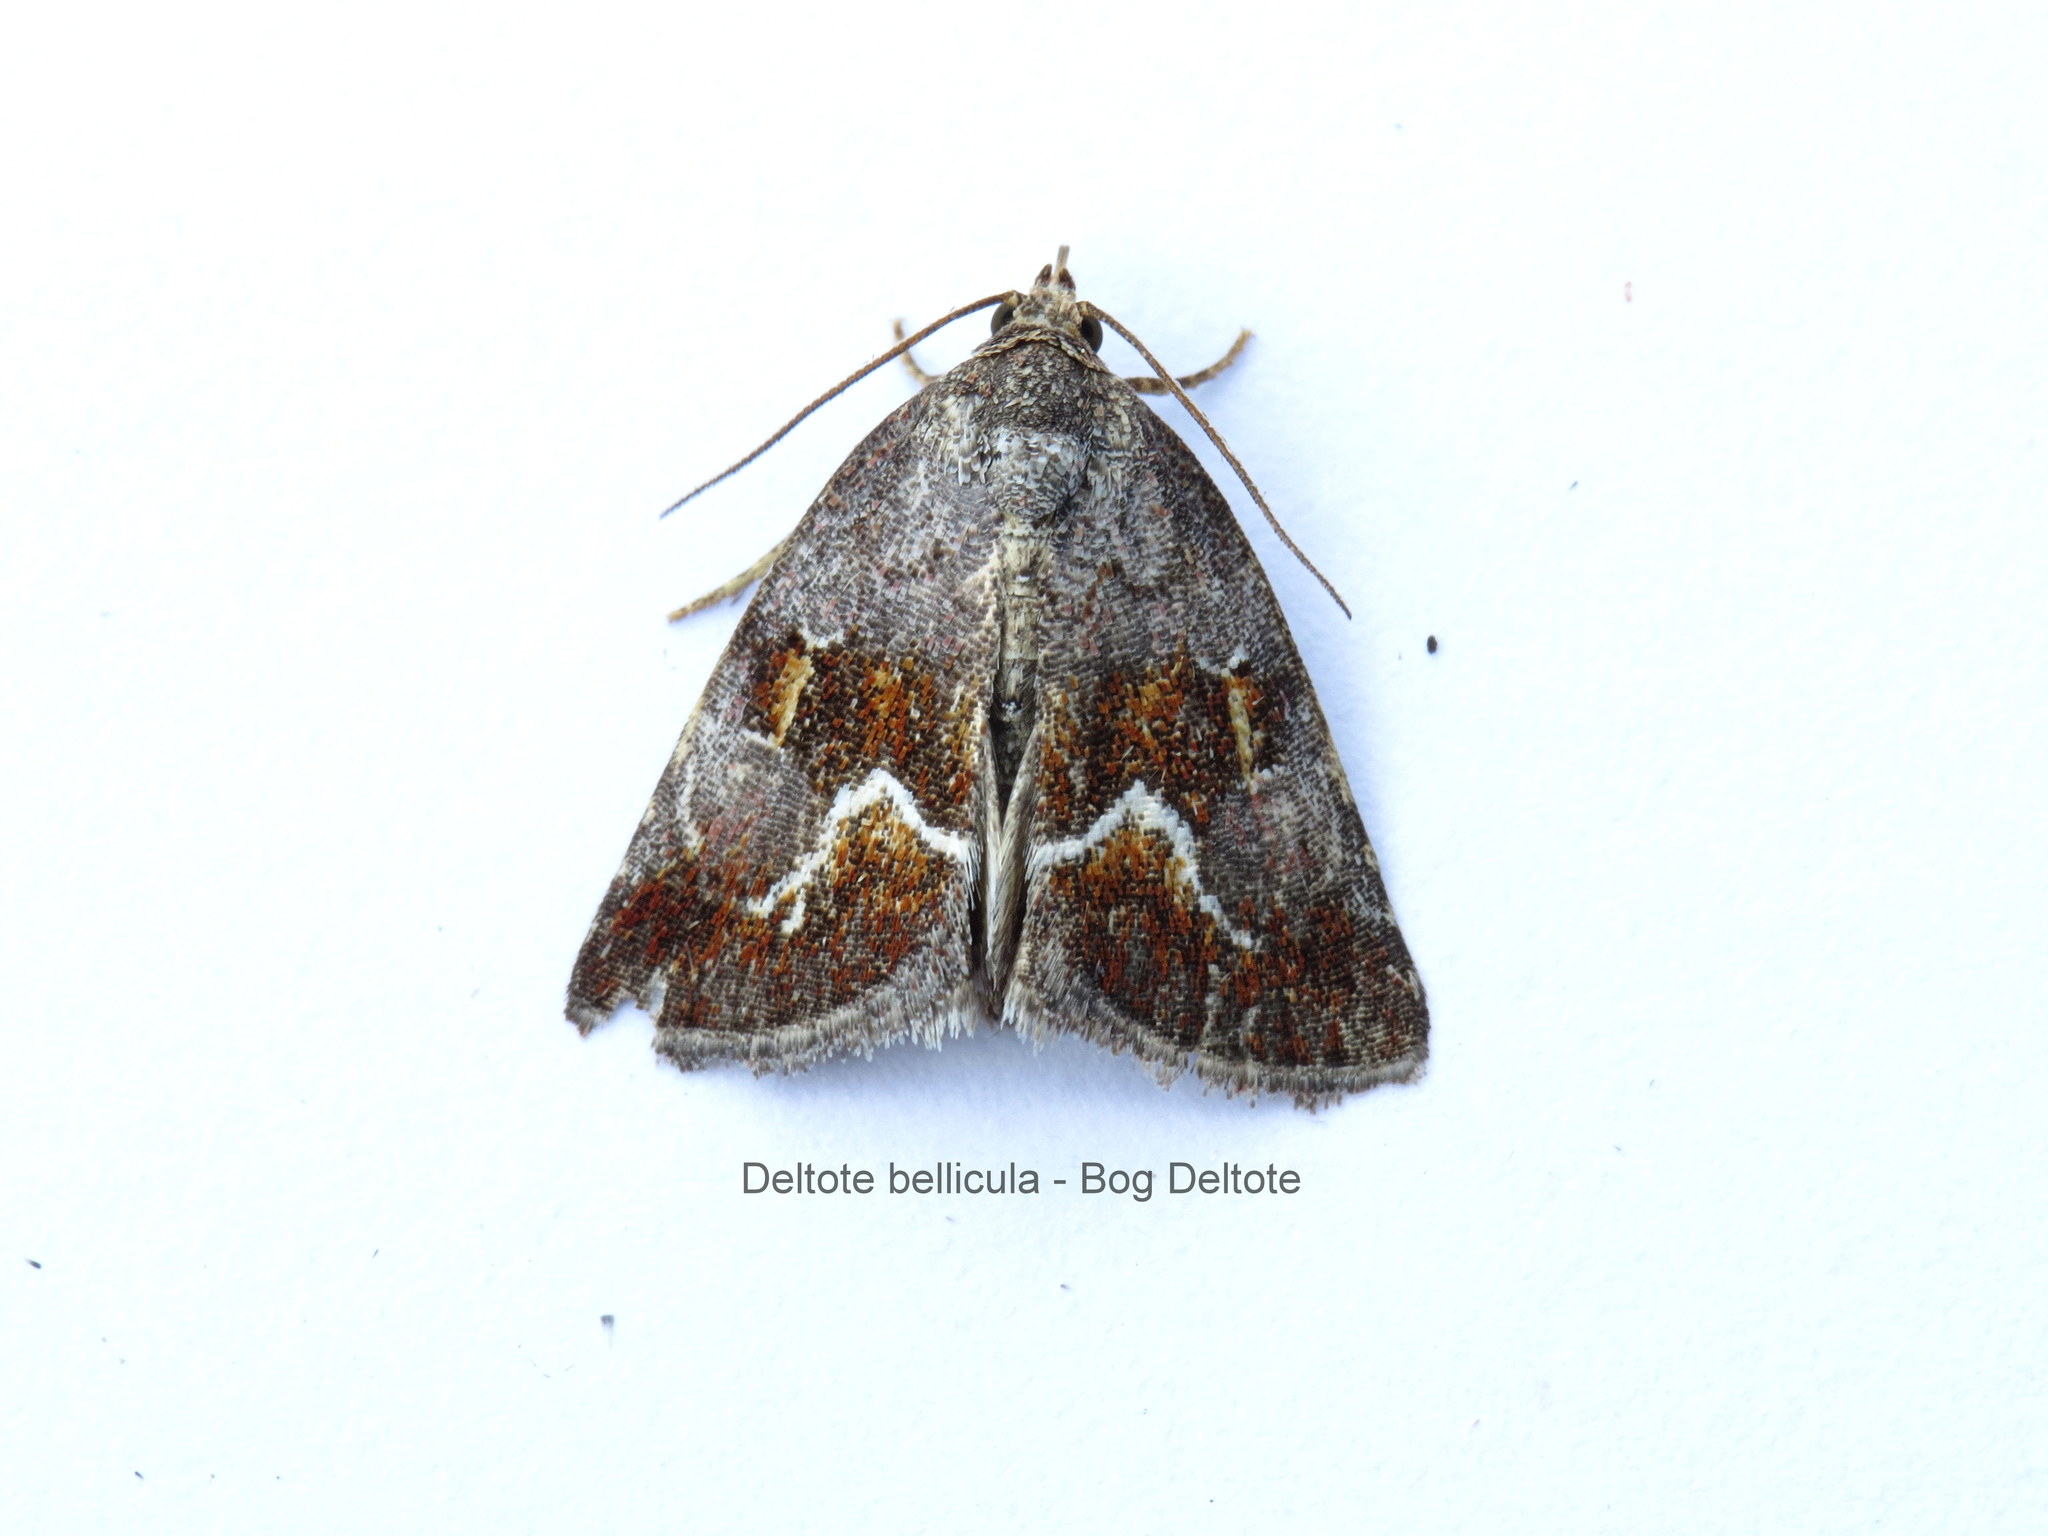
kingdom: Animalia
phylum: Arthropoda
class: Insecta
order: Lepidoptera
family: Noctuidae
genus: Deltote
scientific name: Deltote bellicula
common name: Bog glyph
